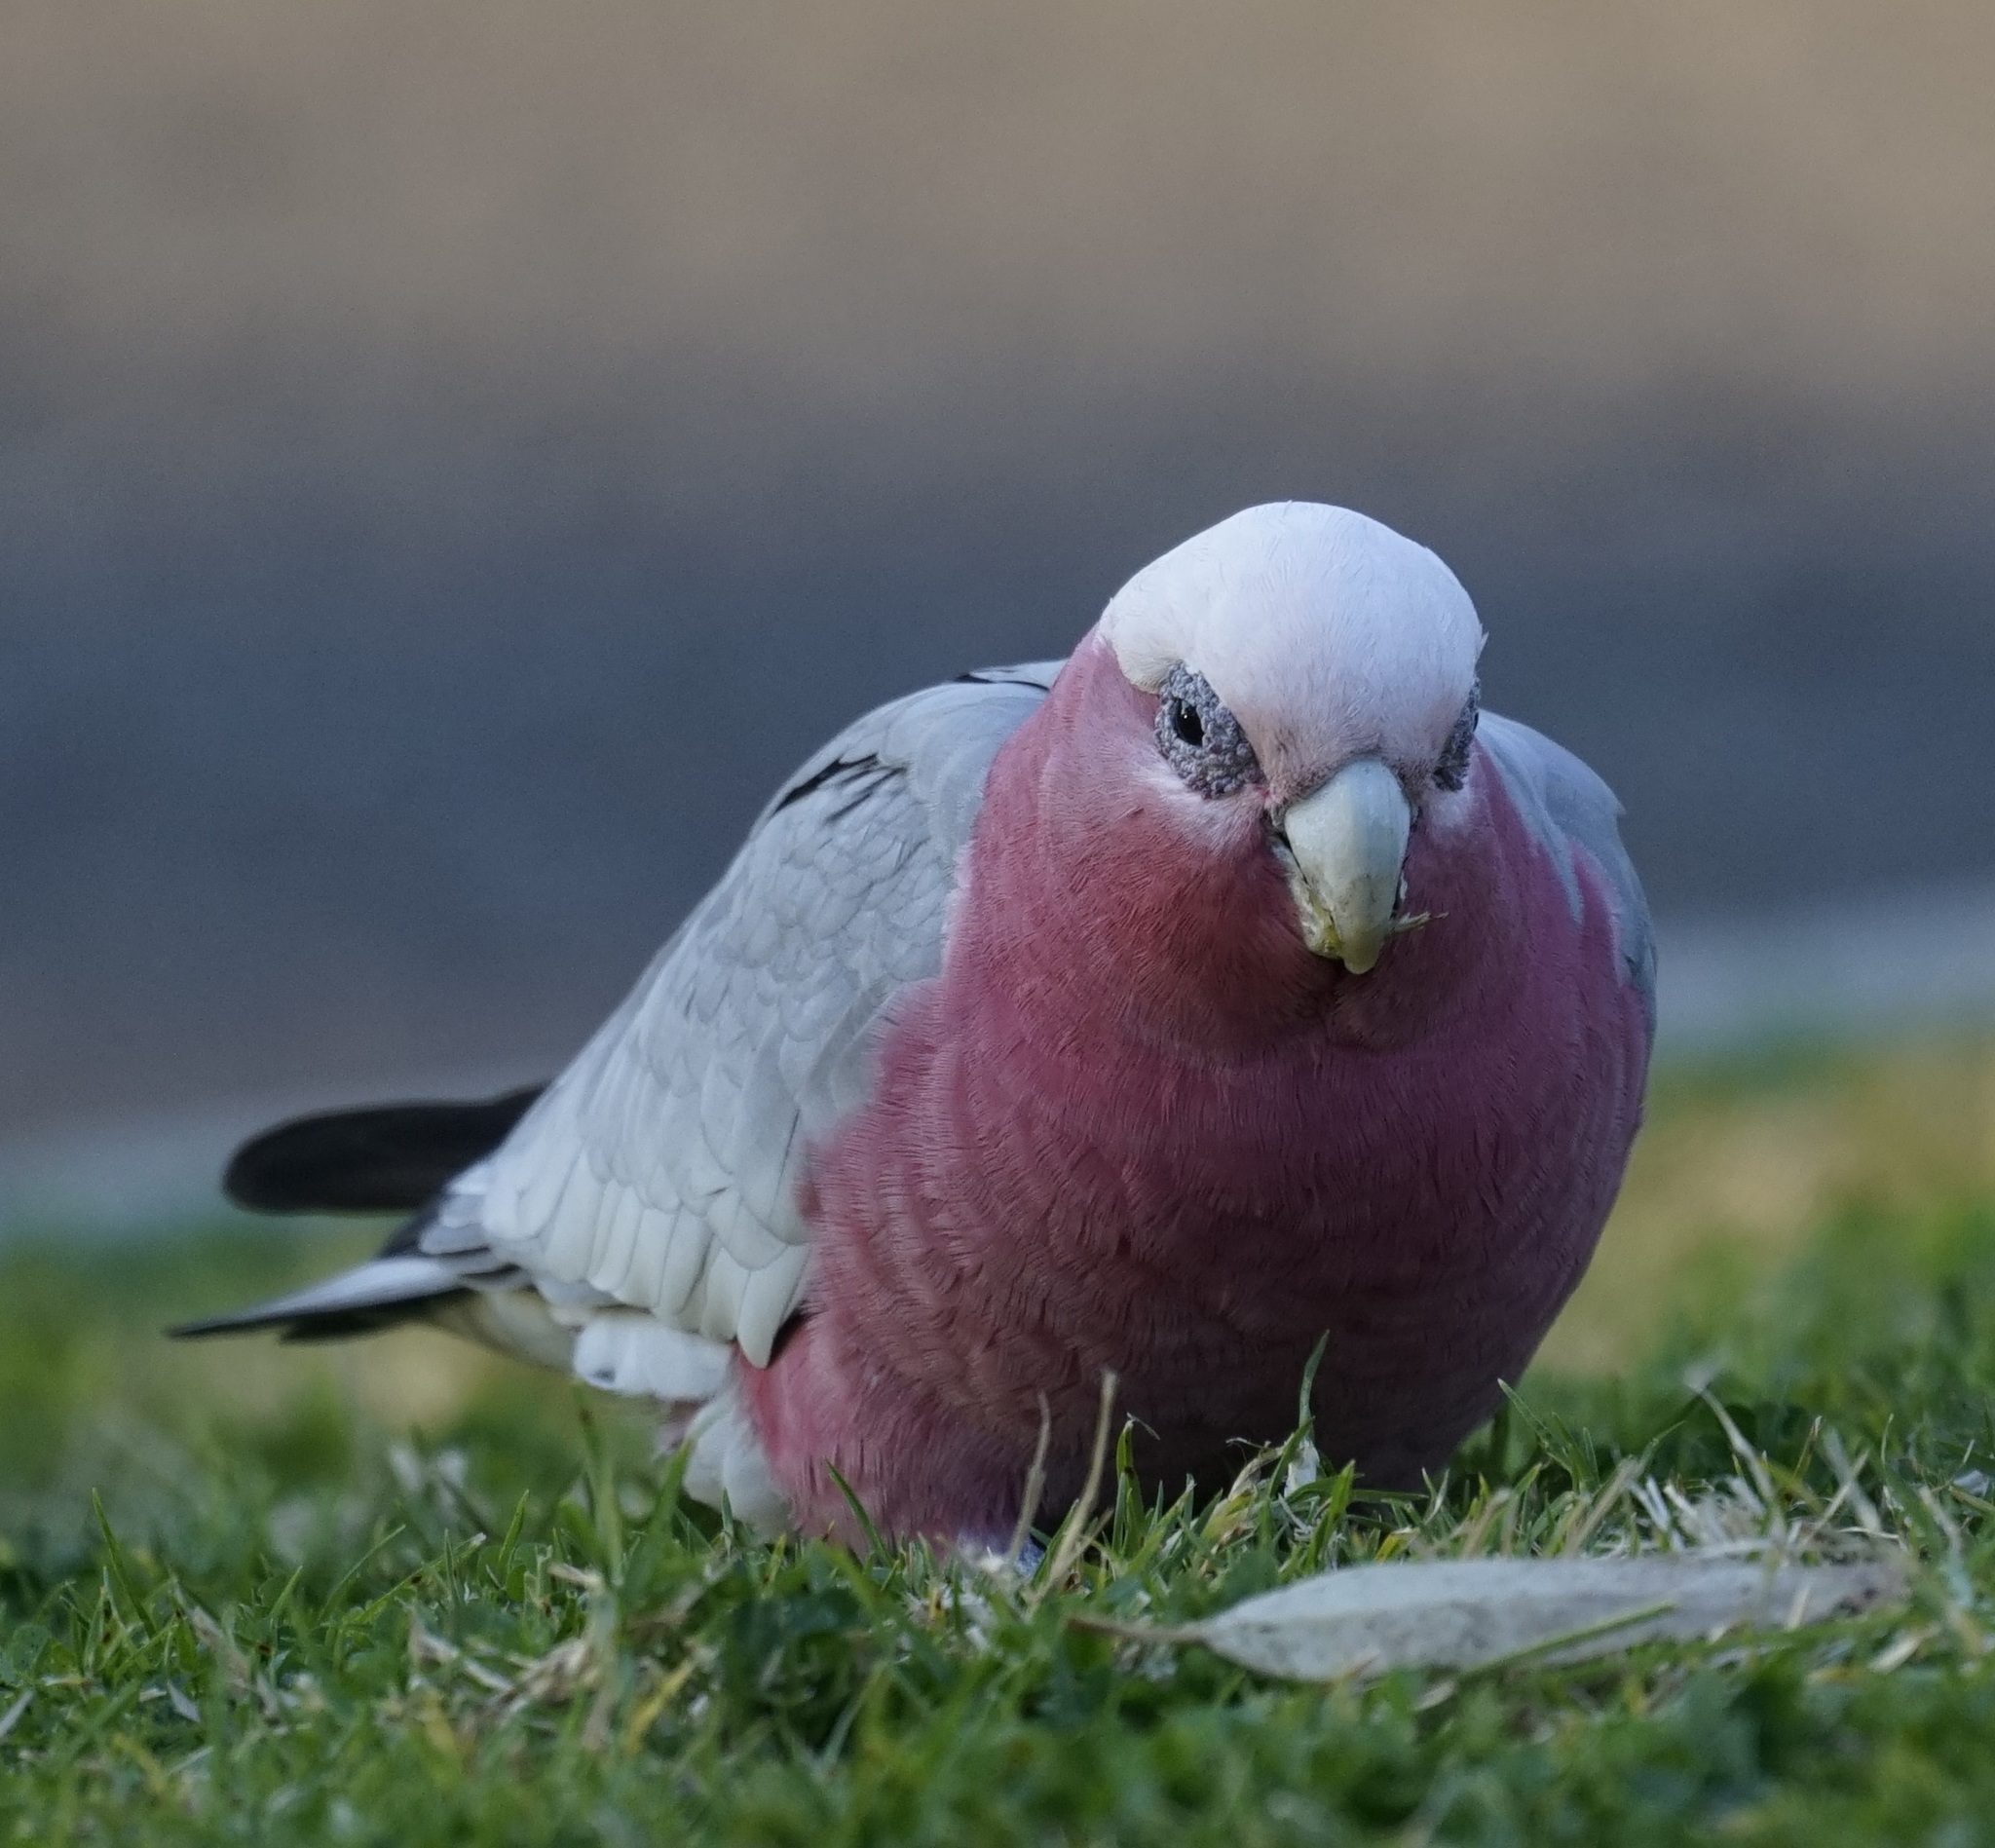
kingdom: Animalia
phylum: Chordata
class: Aves
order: Psittaciformes
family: Psittacidae
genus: Eolophus
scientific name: Eolophus roseicapilla
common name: Galah
